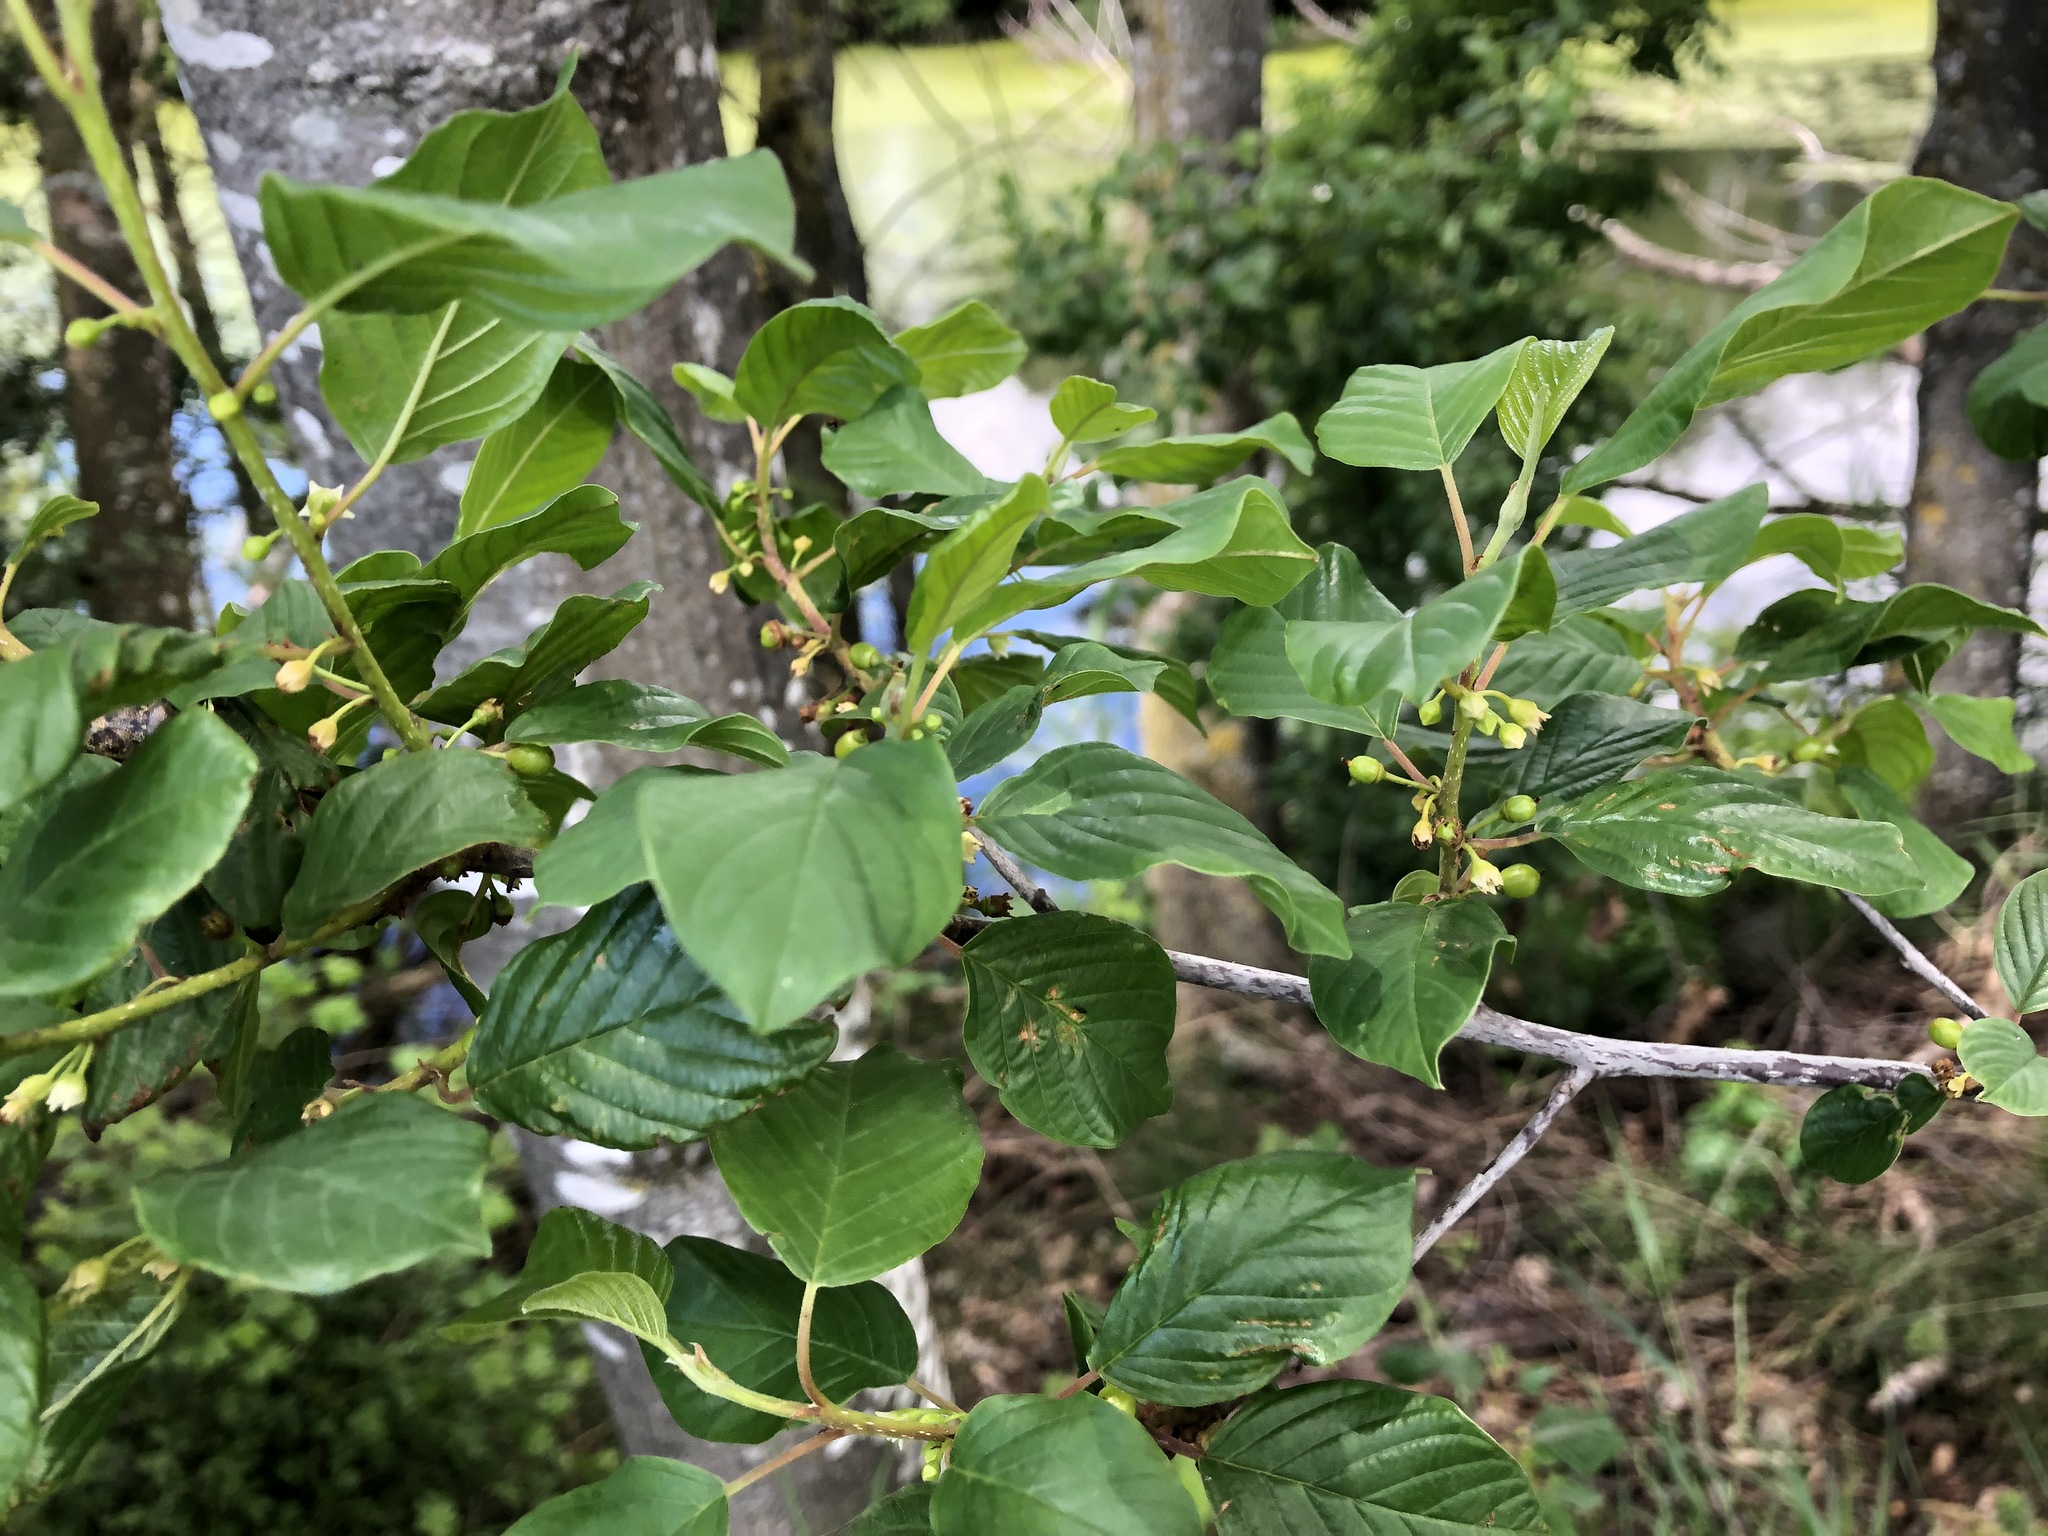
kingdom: Plantae
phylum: Tracheophyta
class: Magnoliopsida
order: Rosales
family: Rhamnaceae
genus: Frangula
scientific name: Frangula alnus
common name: Alder buckthorn
